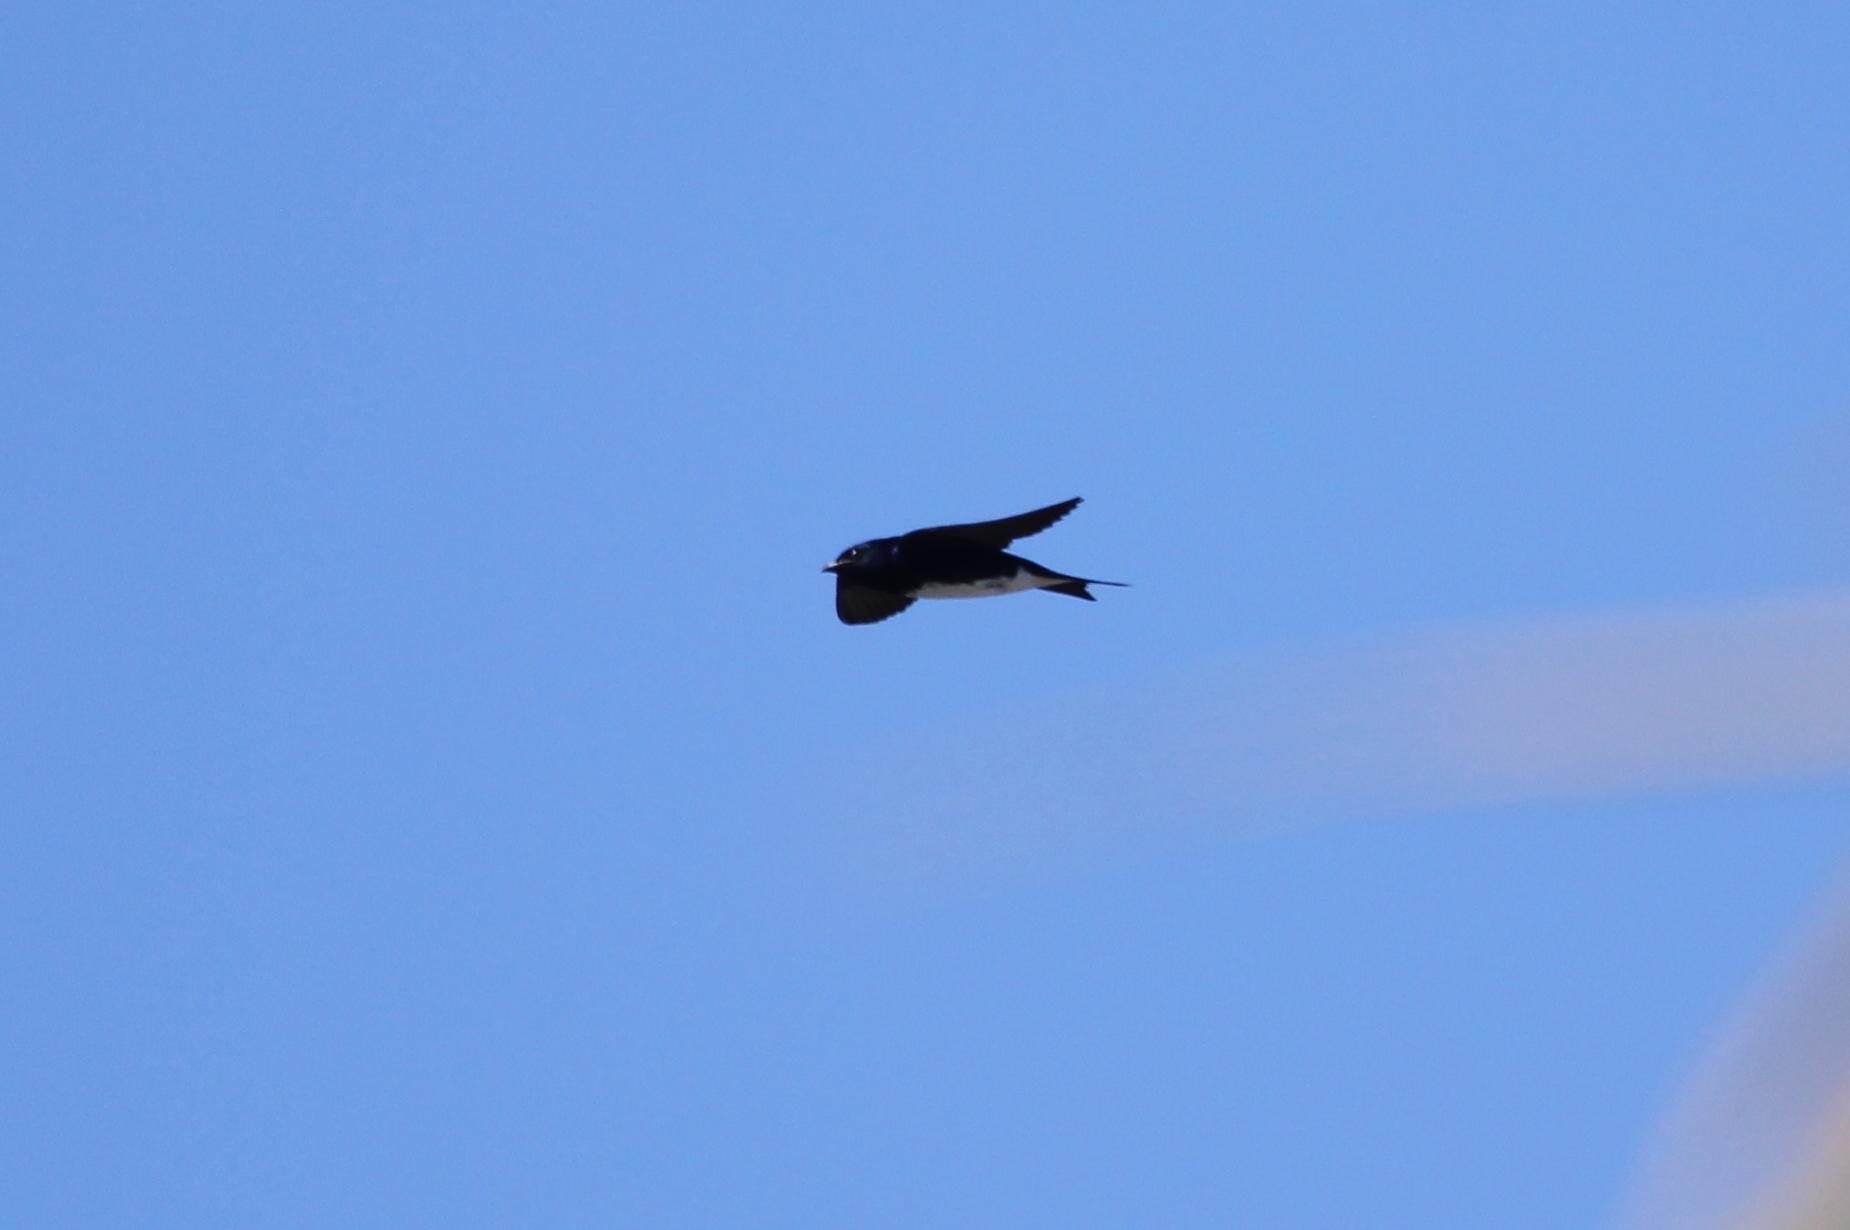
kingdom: Animalia
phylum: Chordata
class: Aves
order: Passeriformes
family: Hirundinidae
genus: Progne
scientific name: Progne dominicensis
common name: Caribbean martin
